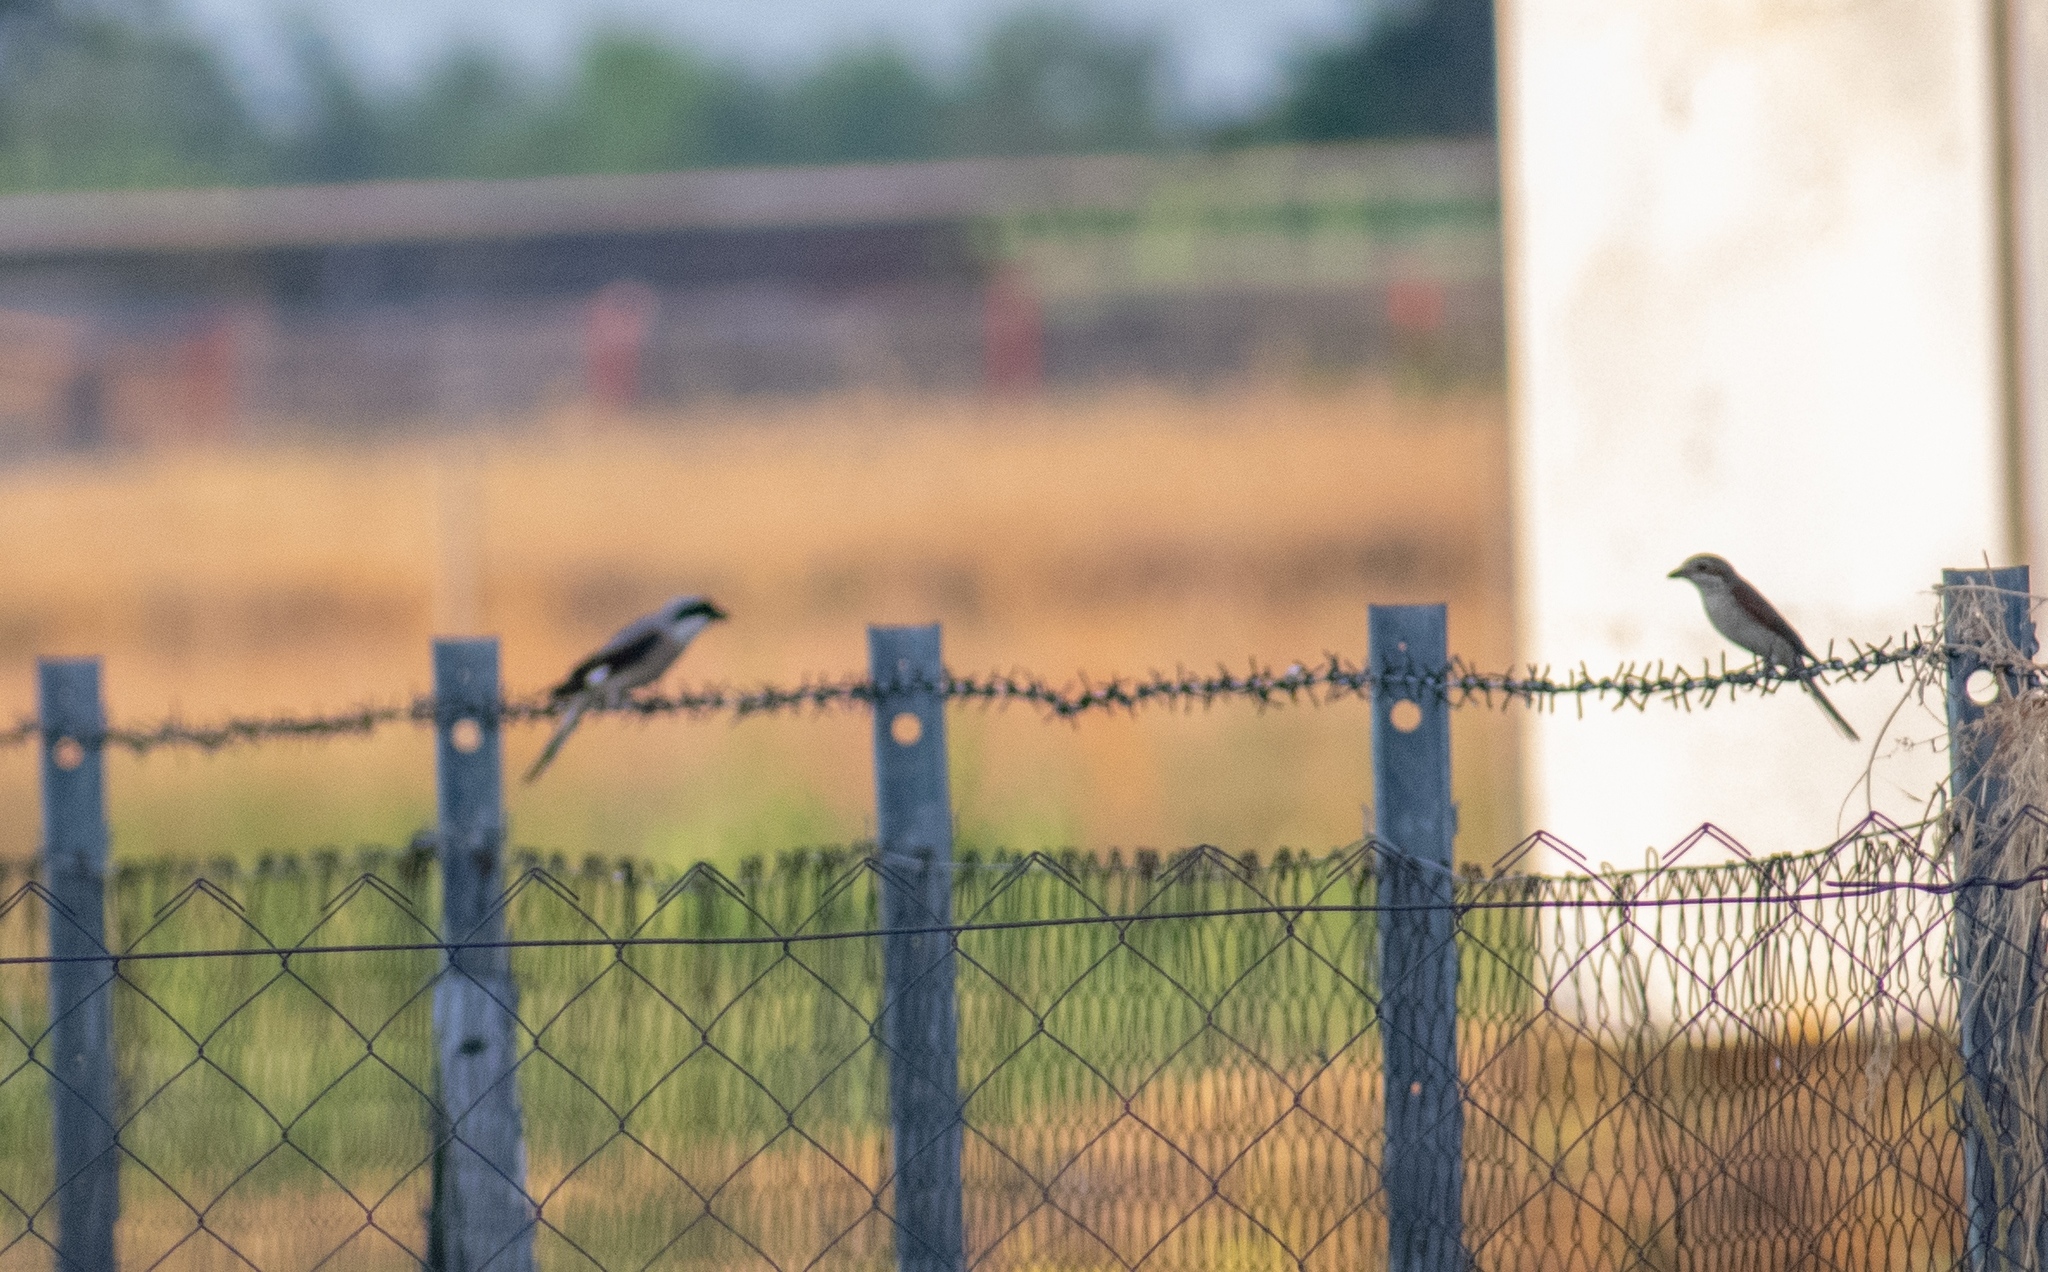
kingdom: Animalia
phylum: Chordata
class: Aves
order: Passeriformes
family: Laniidae
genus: Lanius
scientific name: Lanius minor
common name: Lesser grey shrike
